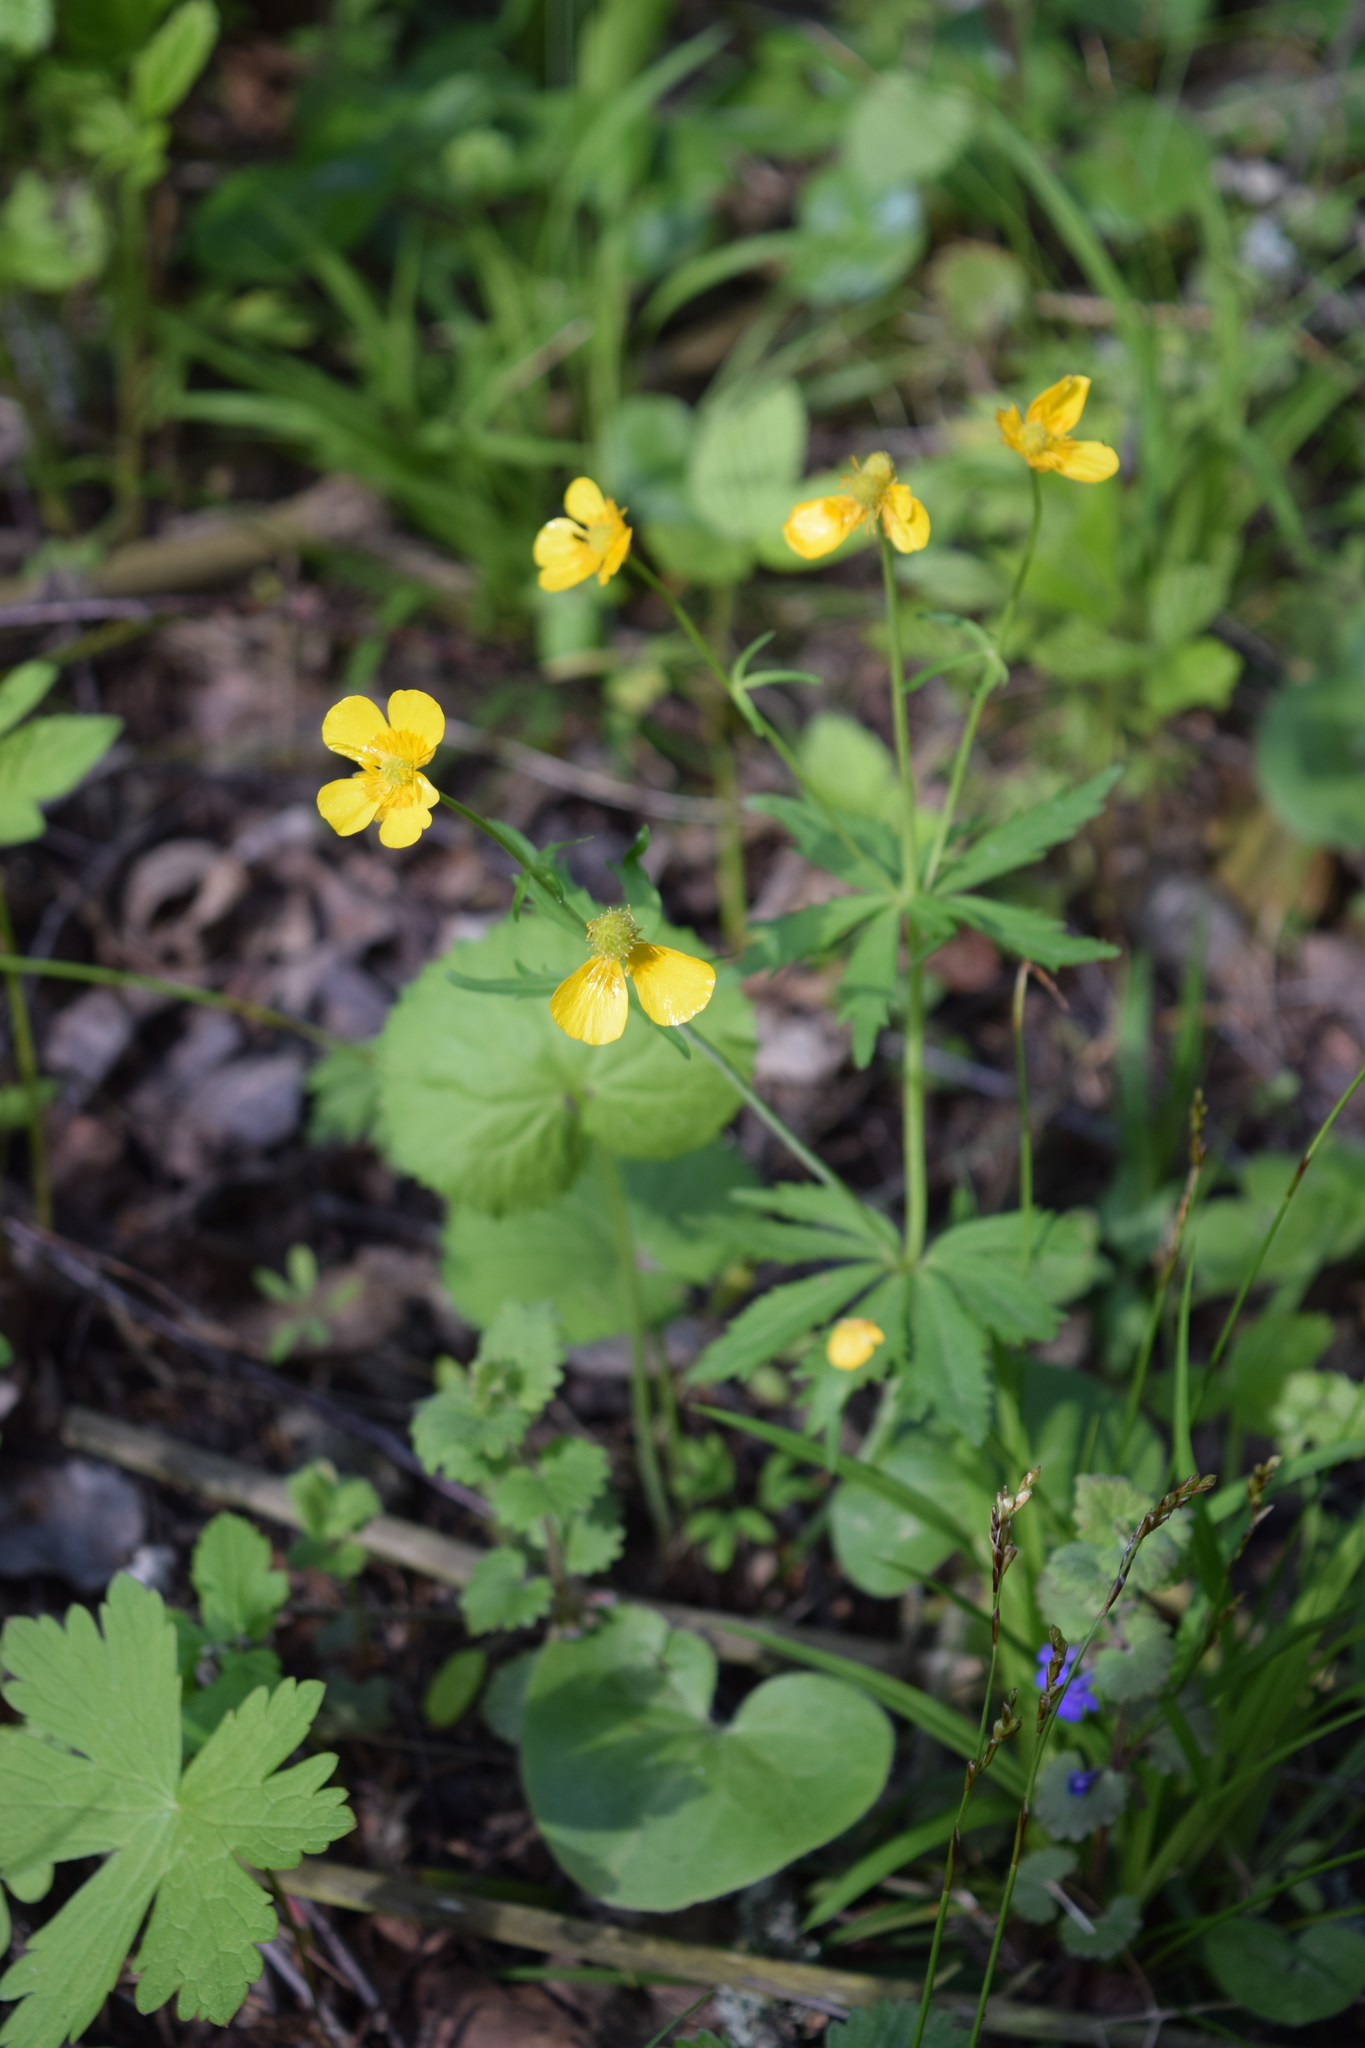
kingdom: Plantae
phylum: Tracheophyta
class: Magnoliopsida
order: Ranunculales
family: Ranunculaceae
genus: Ranunculus
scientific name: Ranunculus cassubicus
